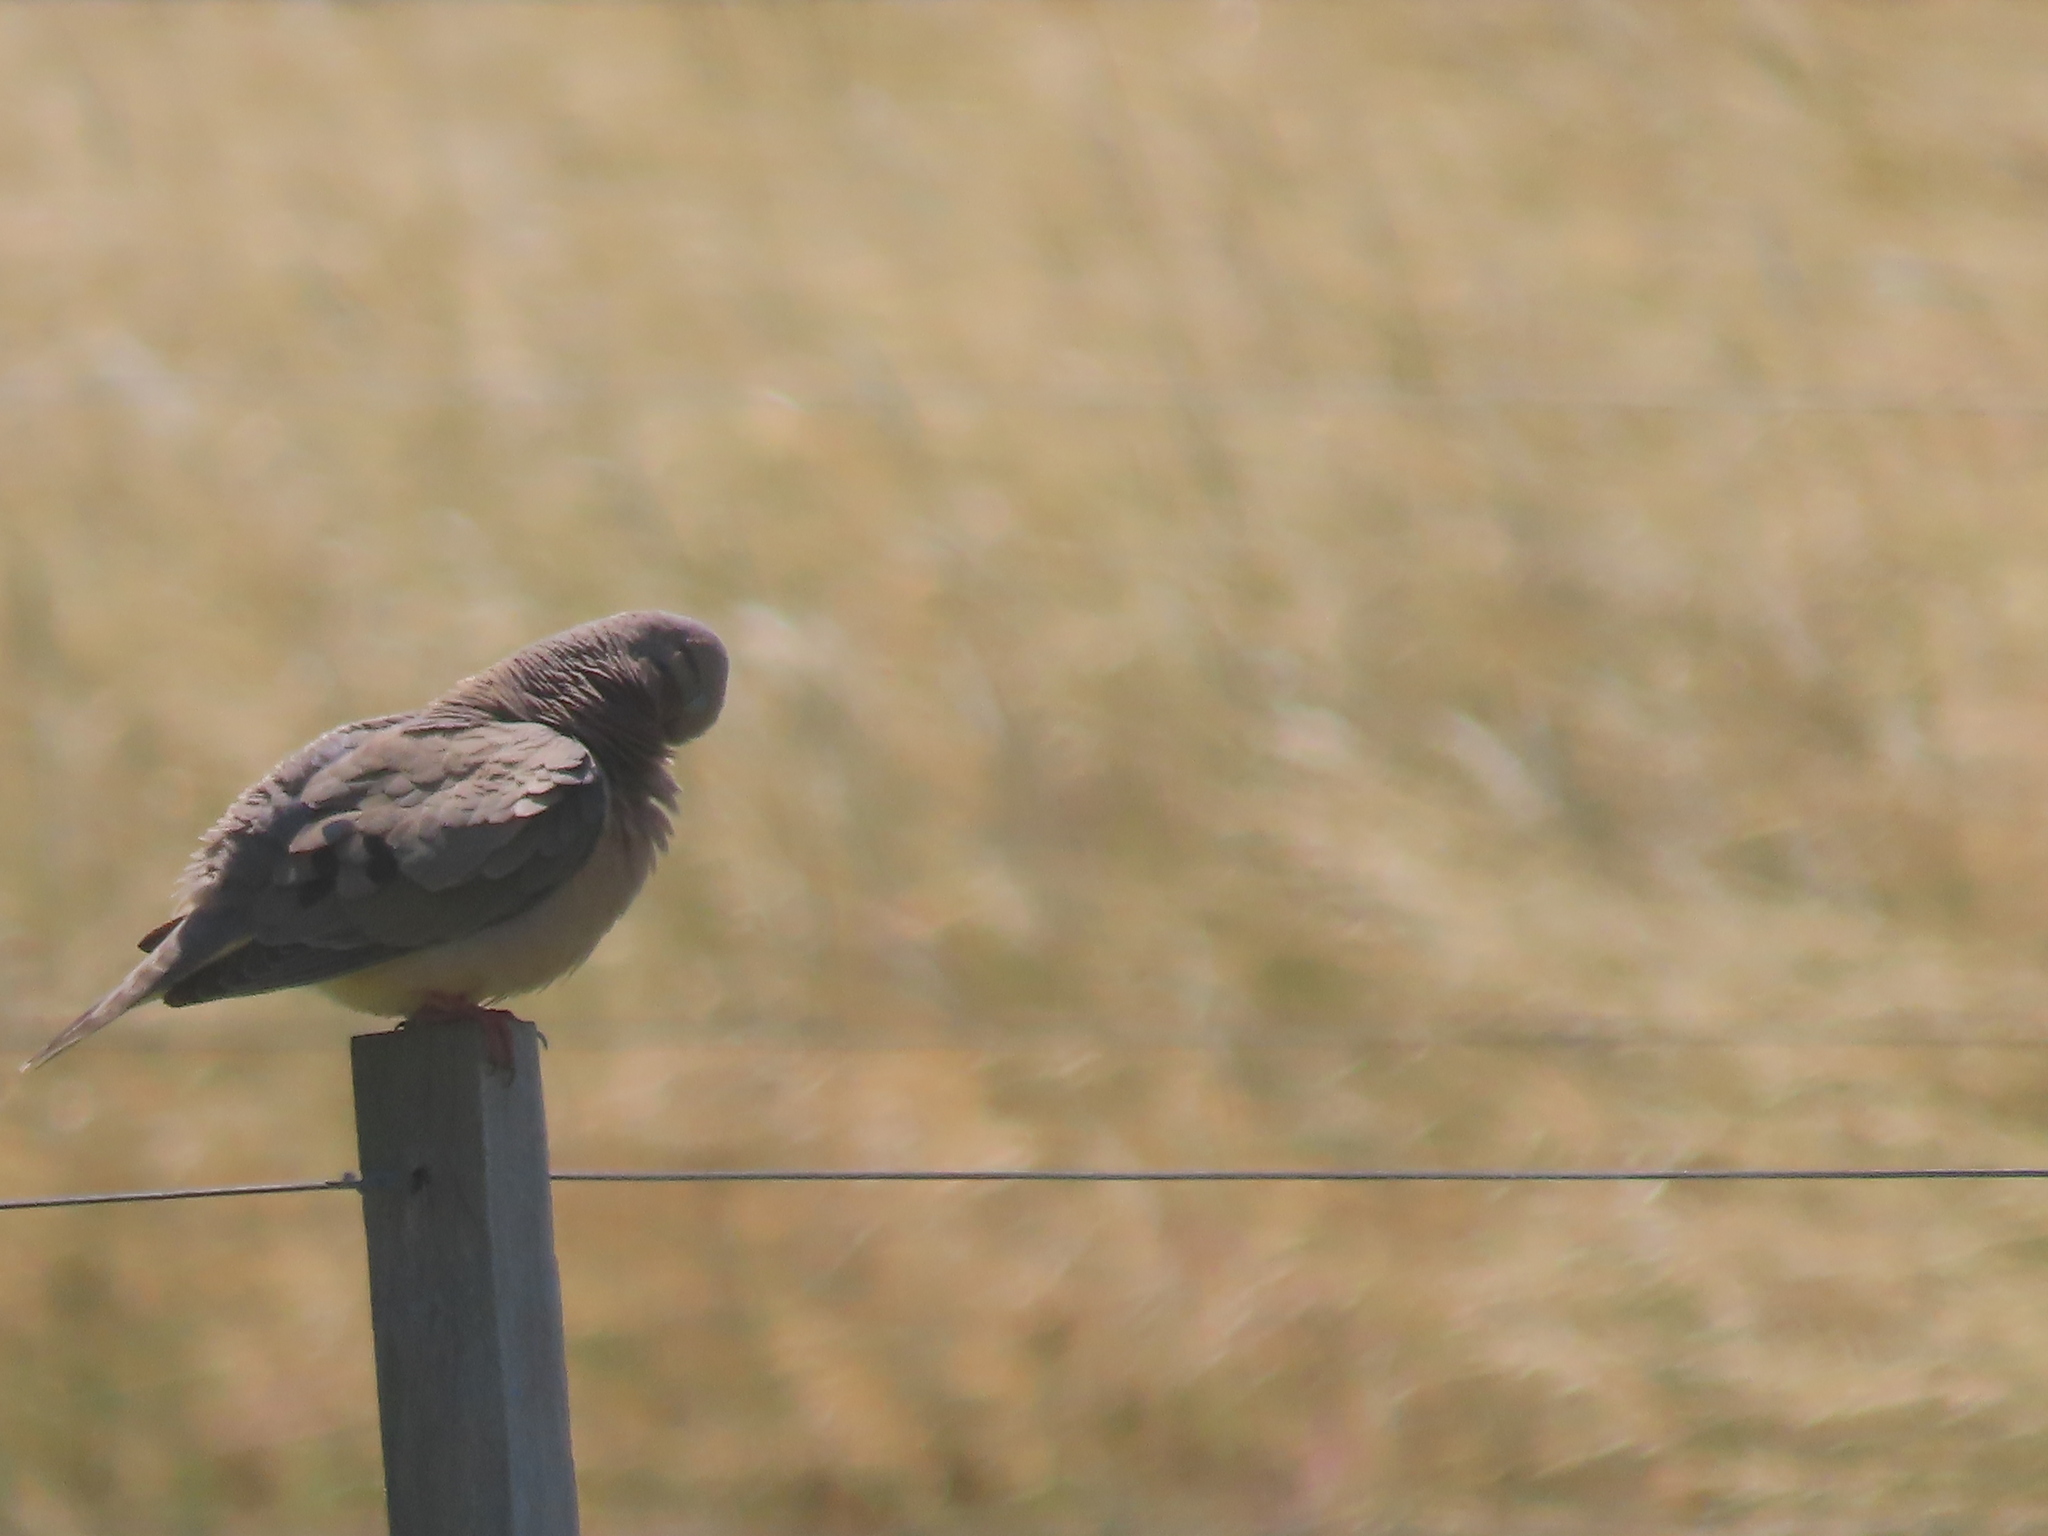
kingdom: Animalia
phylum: Chordata
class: Aves
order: Columbiformes
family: Columbidae
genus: Zenaida
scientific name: Zenaida auriculata
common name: Eared dove
